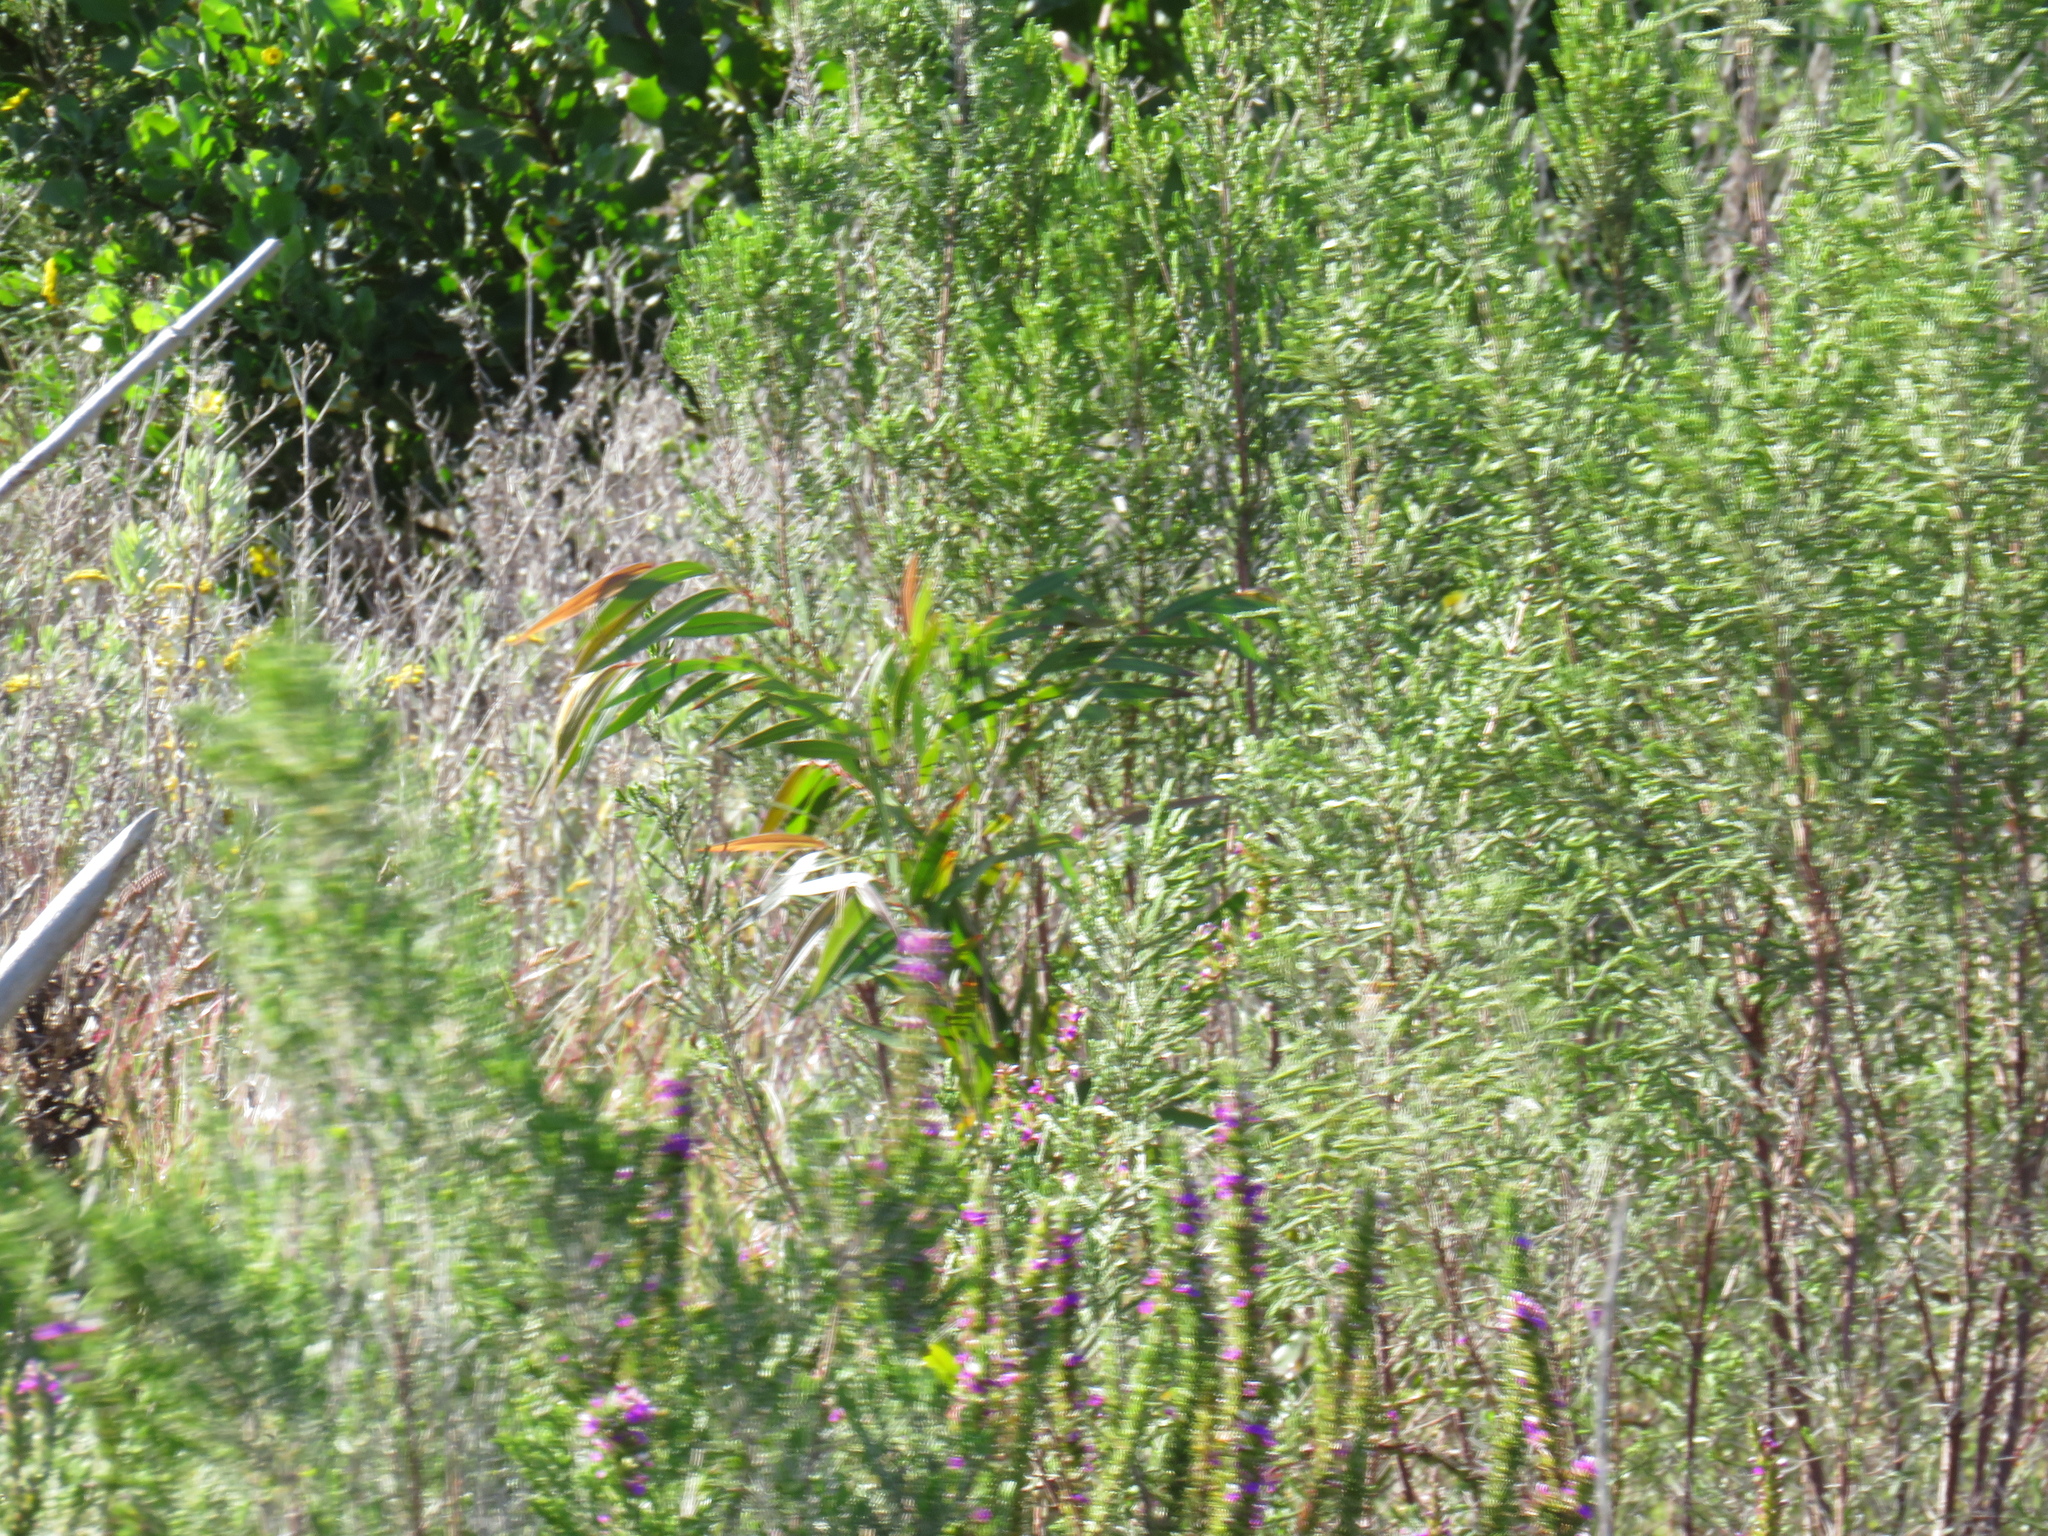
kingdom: Plantae
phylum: Tracheophyta
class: Magnoliopsida
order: Myrtales
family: Myrtaceae
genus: Callistemon
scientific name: Callistemon salignus
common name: White bottlebrush
